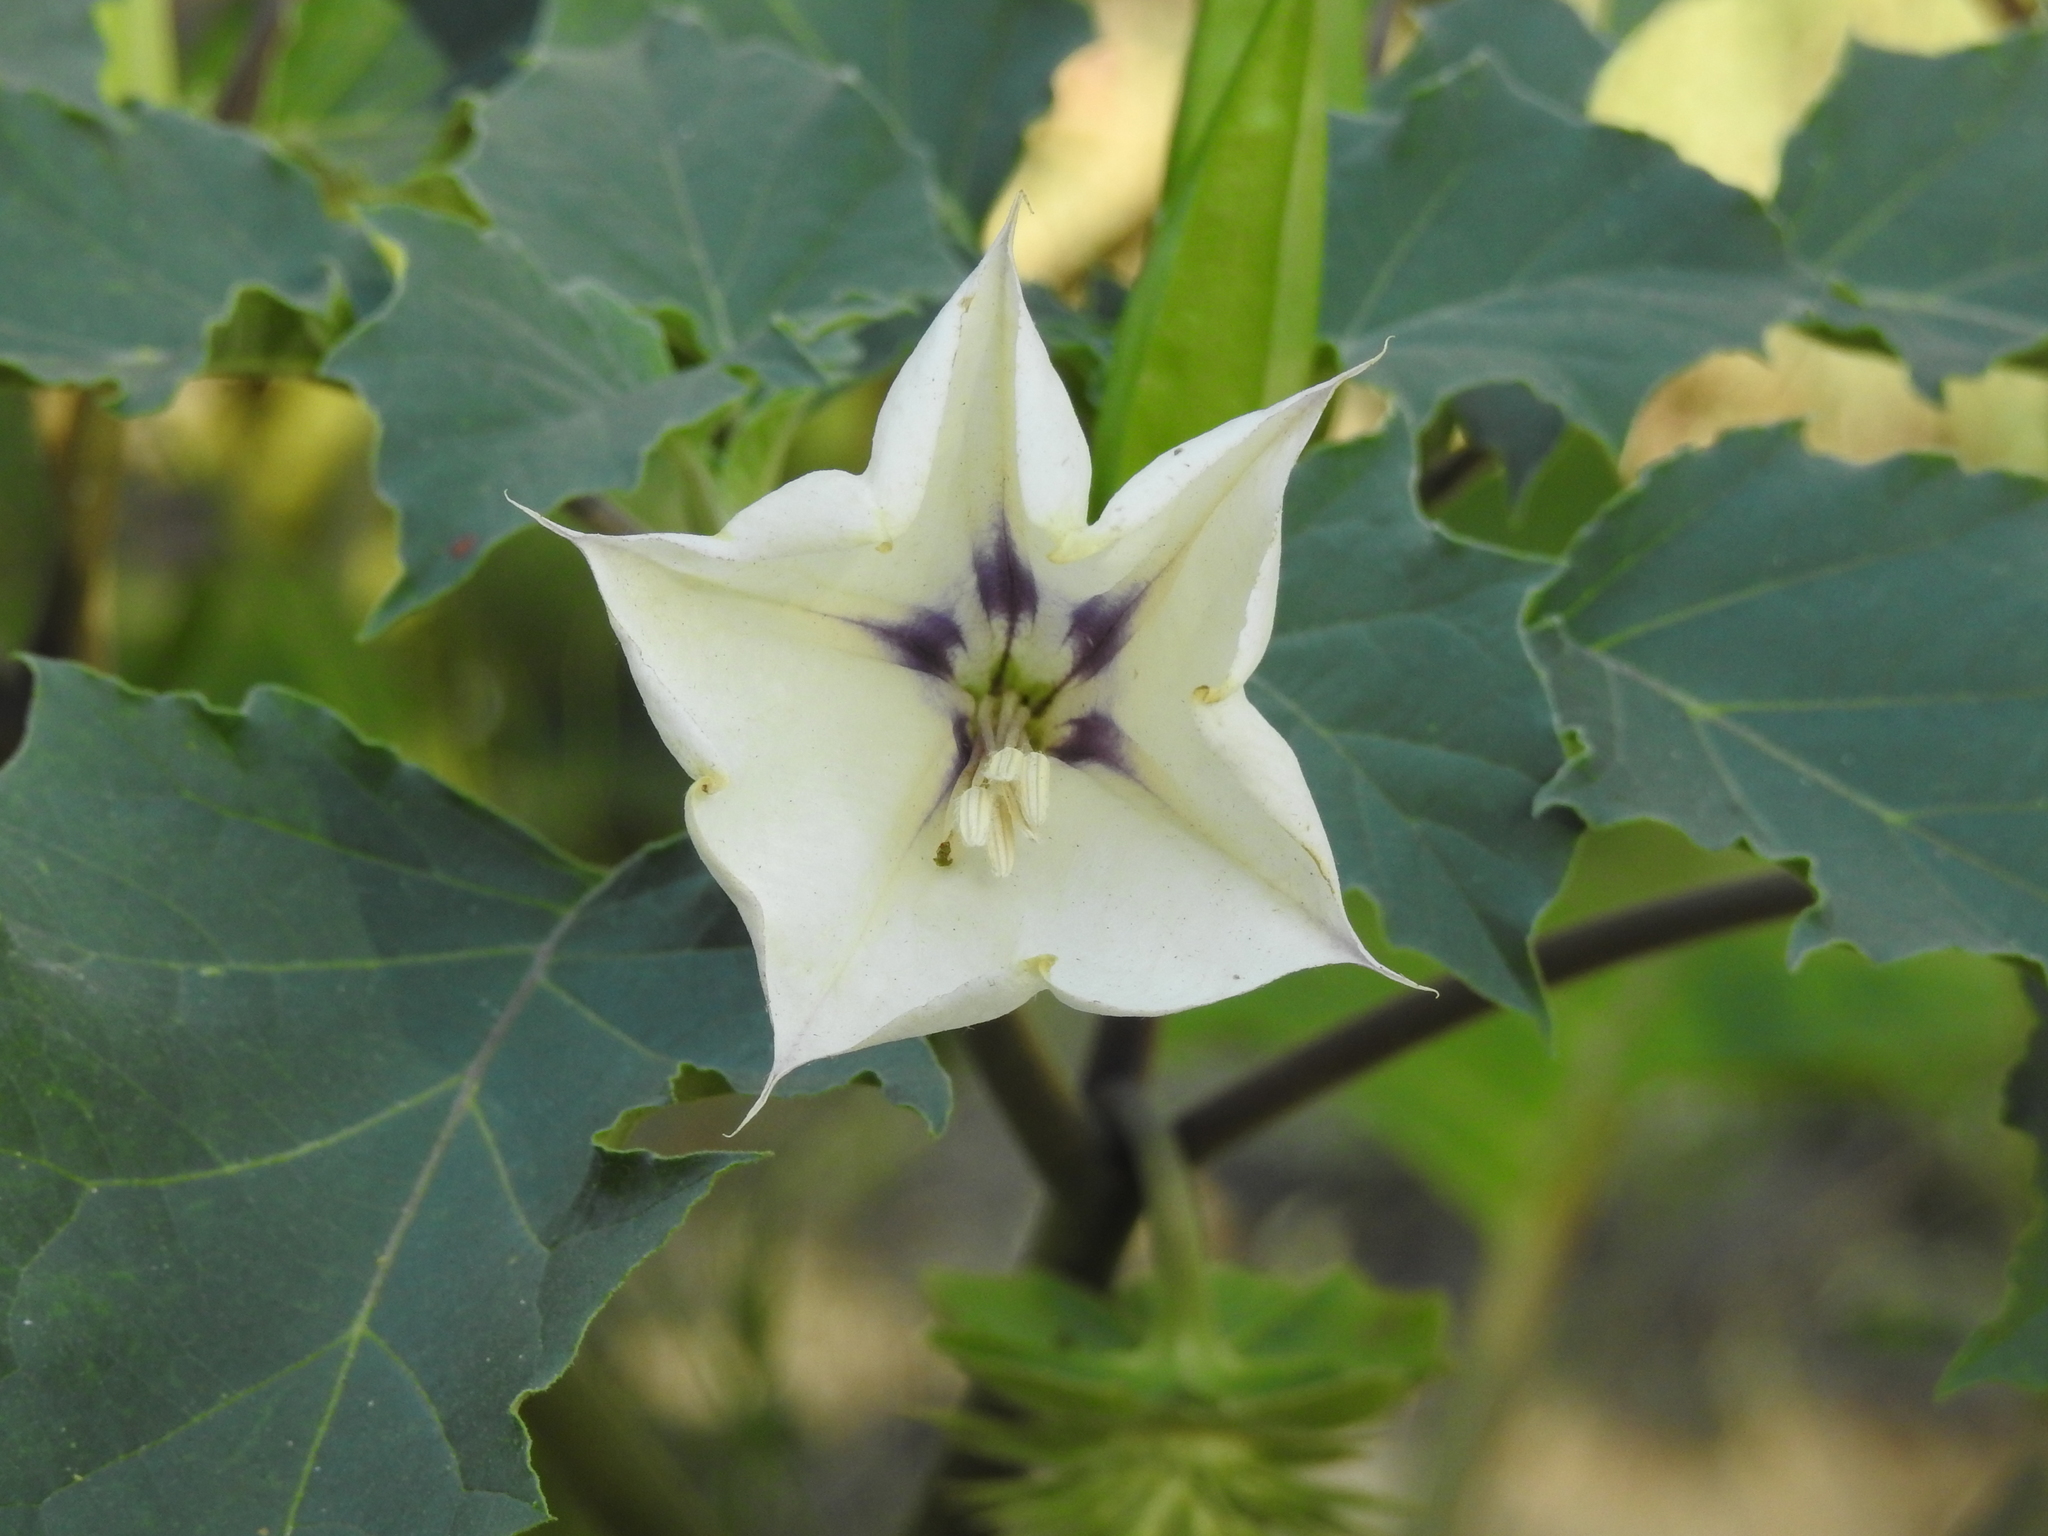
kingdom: Plantae
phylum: Tracheophyta
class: Magnoliopsida
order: Solanales
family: Solanaceae
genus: Datura
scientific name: Datura discolor
